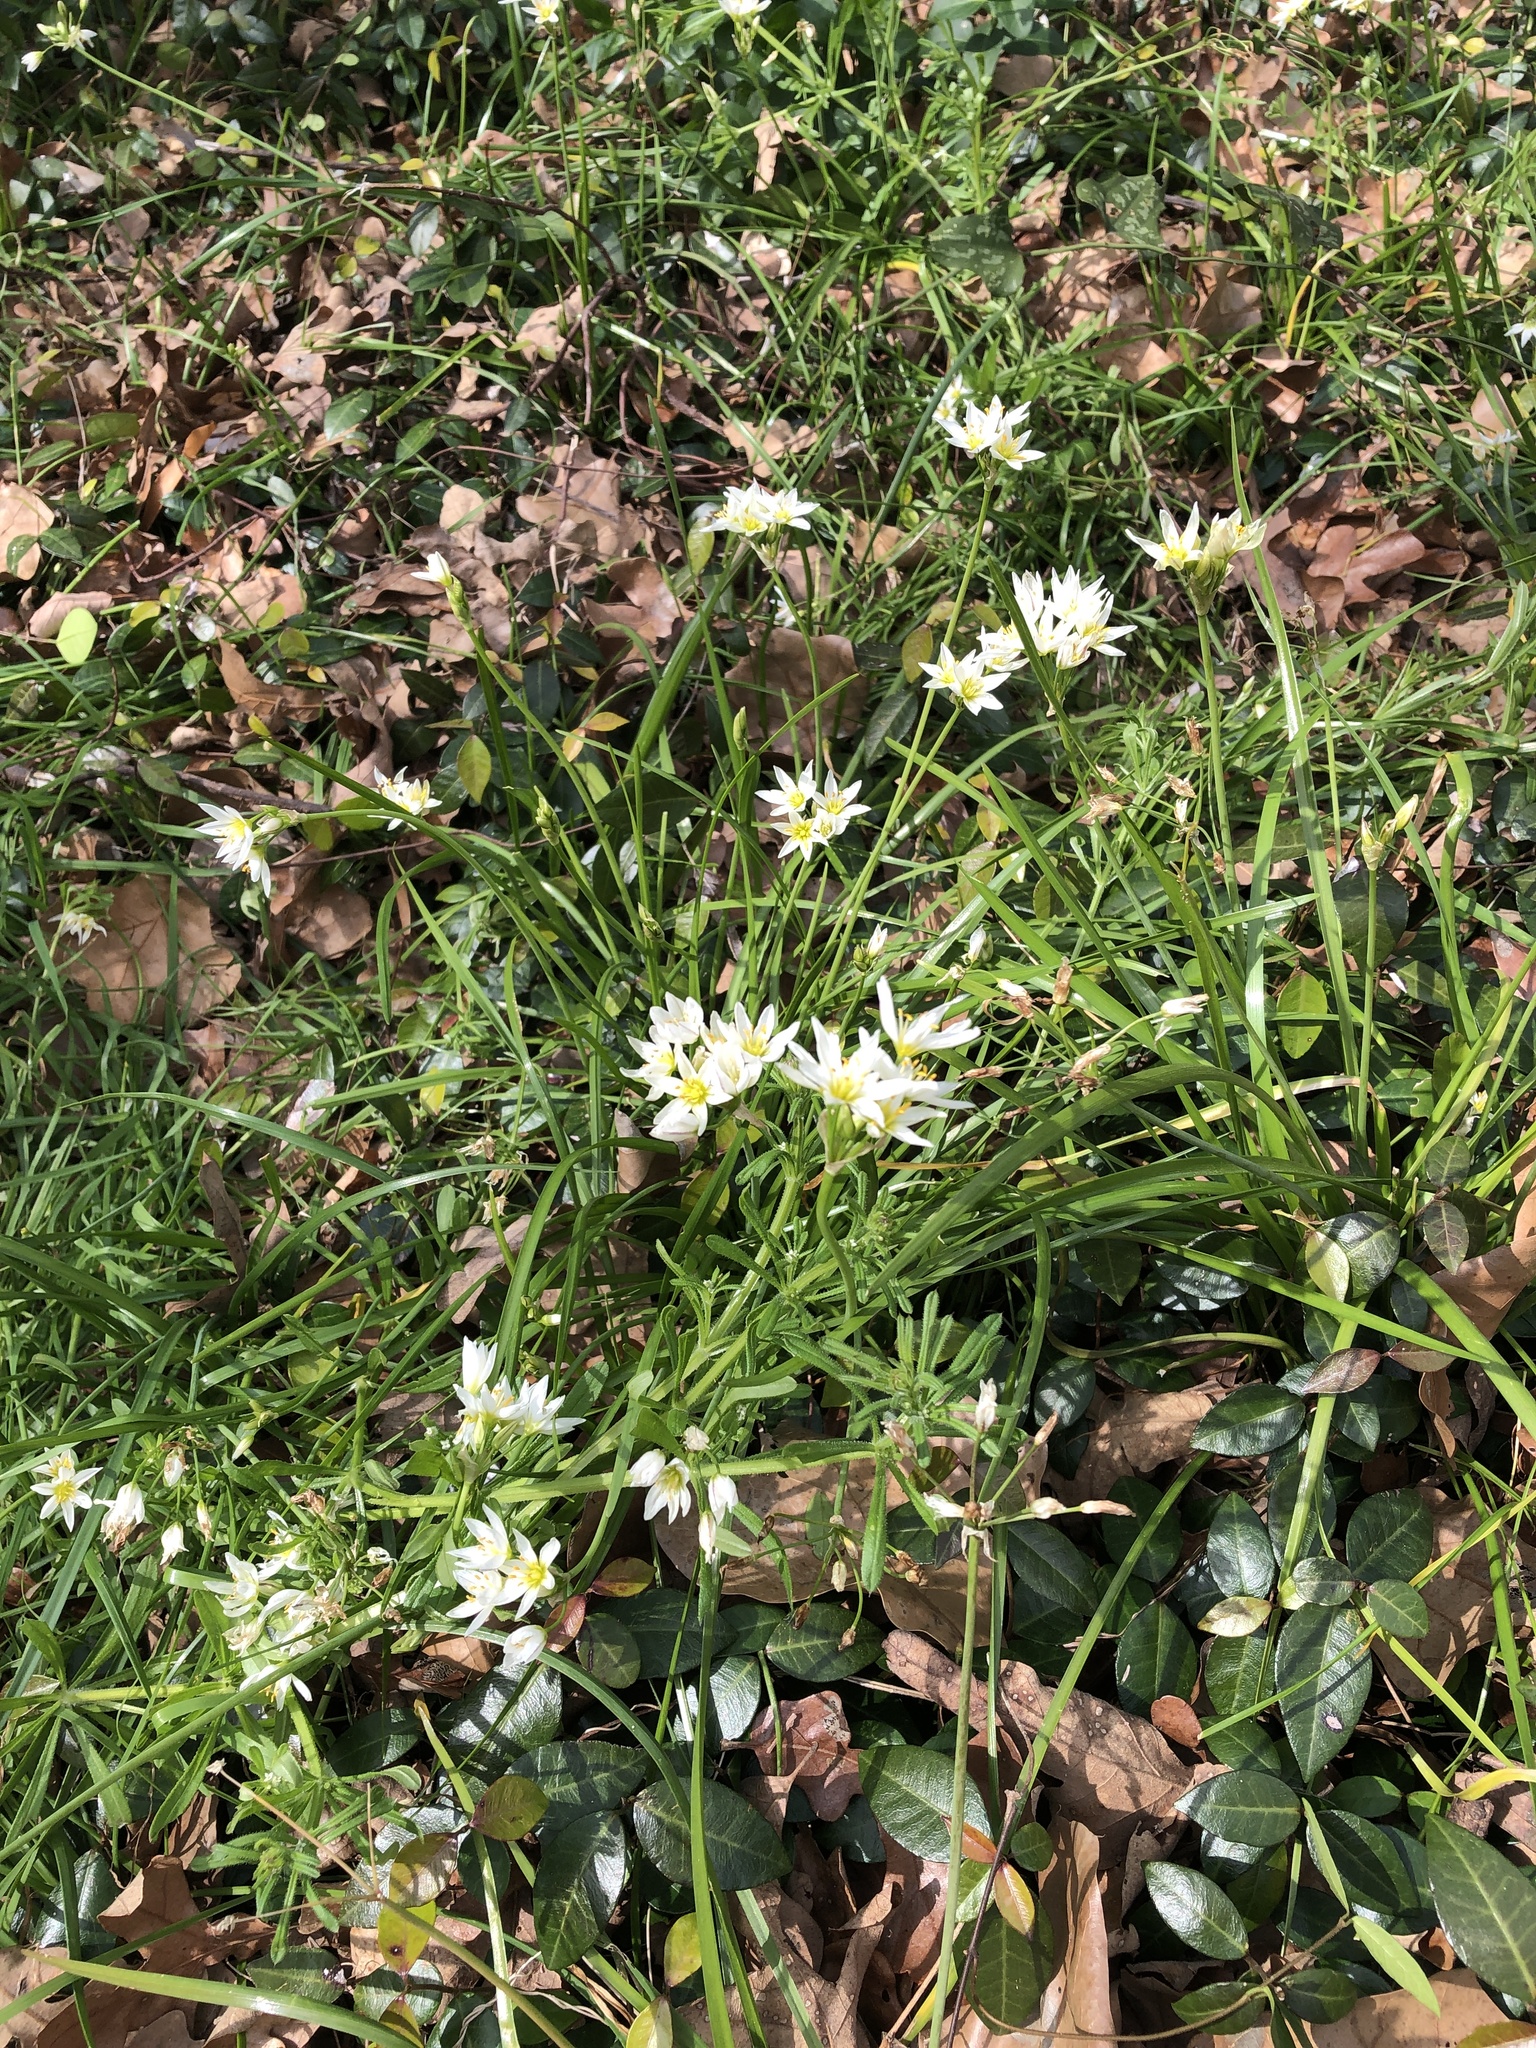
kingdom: Plantae
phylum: Tracheophyta
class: Liliopsida
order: Asparagales
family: Amaryllidaceae
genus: Nothoscordum
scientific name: Nothoscordum bivalve
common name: Crow-poison
